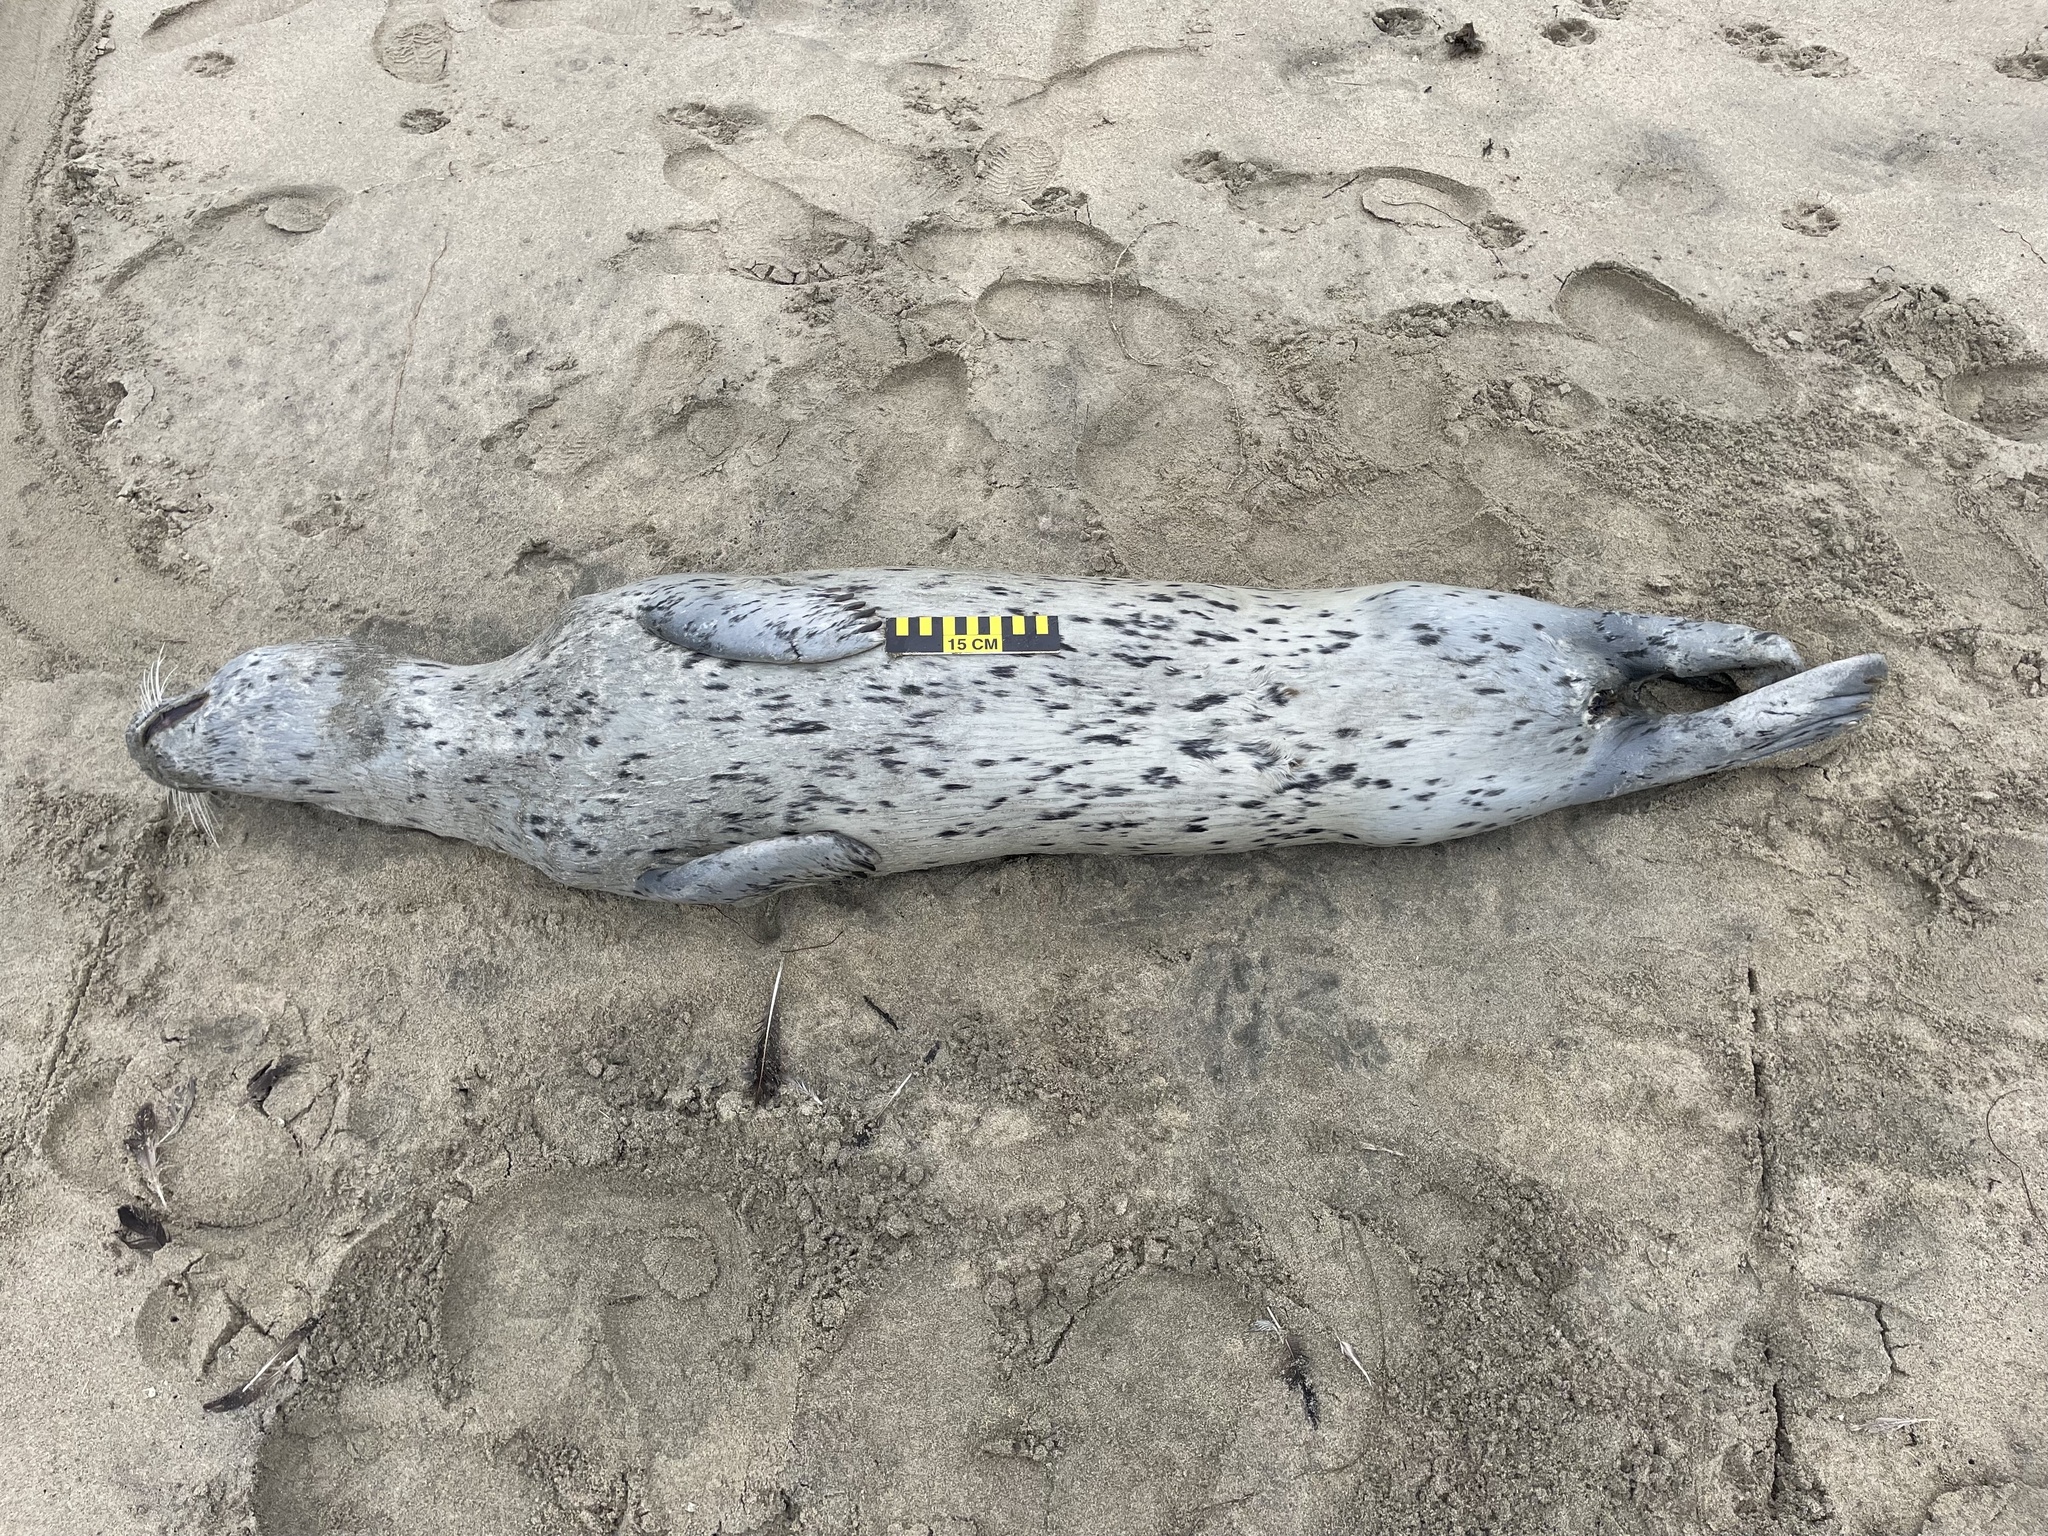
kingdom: Animalia
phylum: Chordata
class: Mammalia
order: Carnivora
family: Phocidae
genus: Phoca
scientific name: Phoca vitulina
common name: Harbor seal
